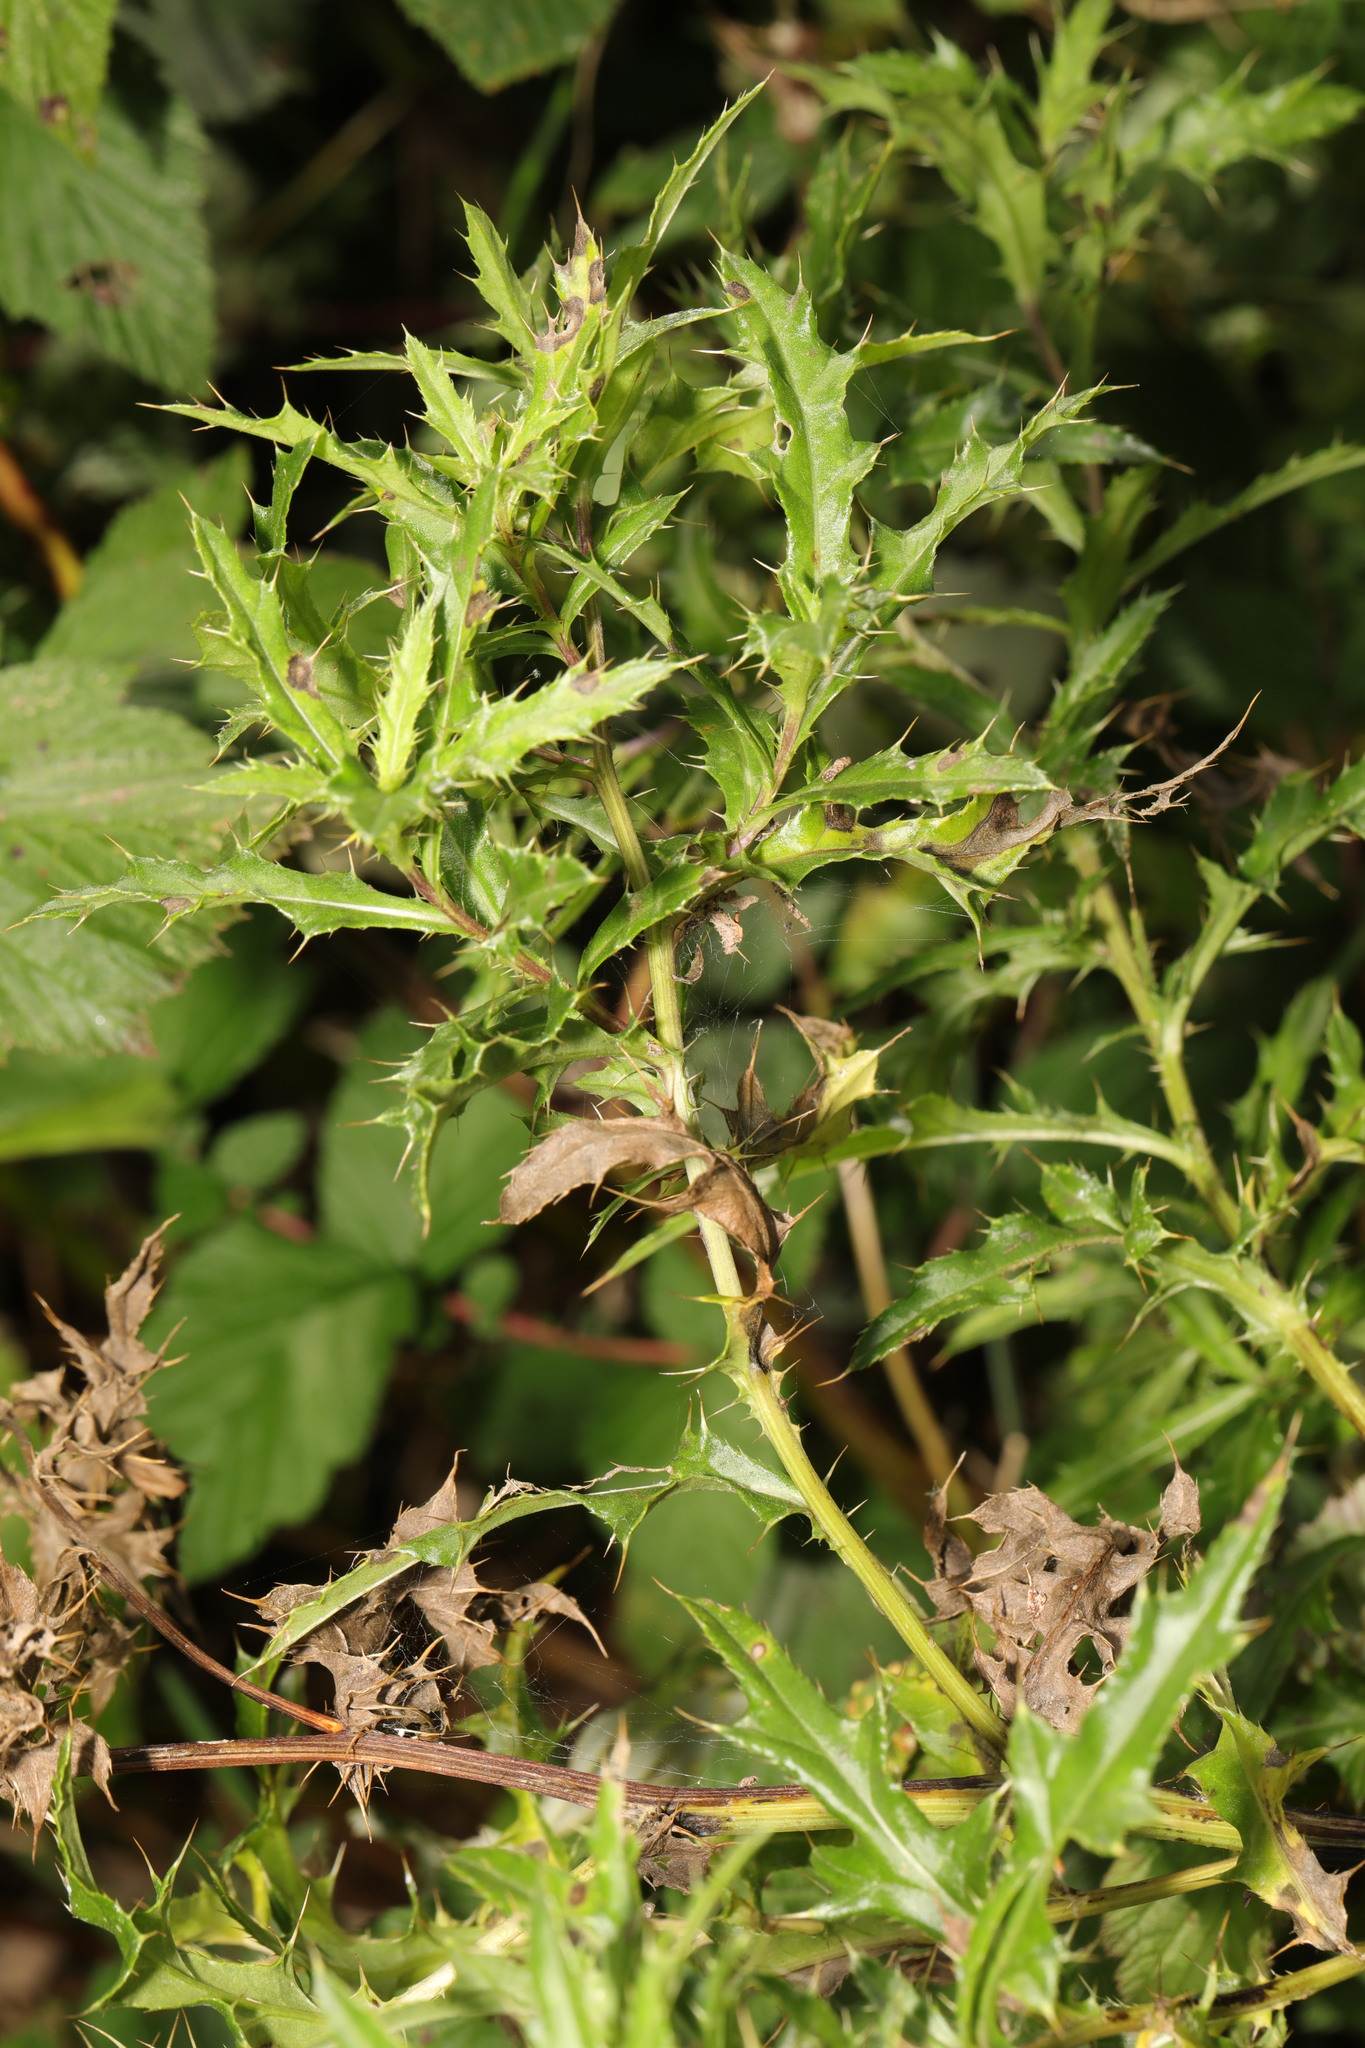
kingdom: Plantae
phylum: Tracheophyta
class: Magnoliopsida
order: Asterales
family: Asteraceae
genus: Cirsium
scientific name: Cirsium arvense
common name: Creeping thistle
